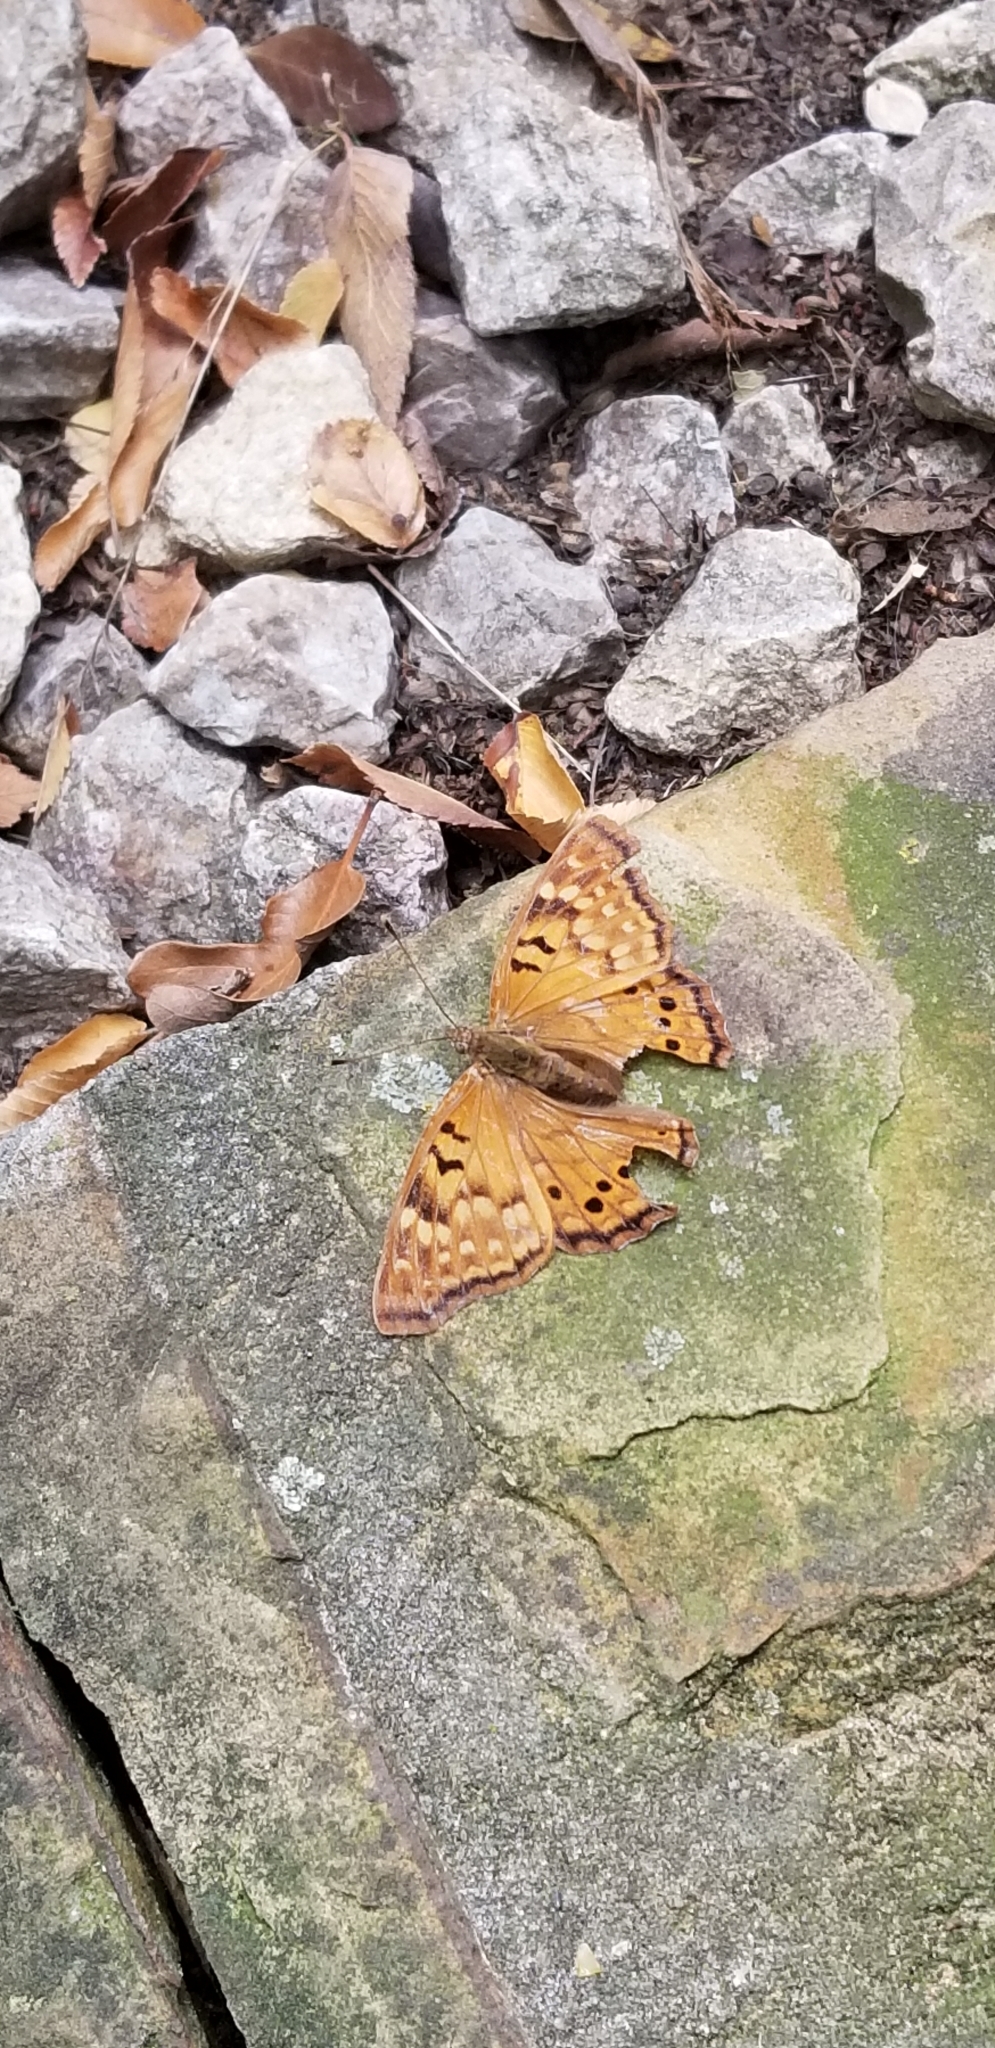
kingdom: Animalia
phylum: Arthropoda
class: Insecta
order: Lepidoptera
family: Nymphalidae
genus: Asterocampa
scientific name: Asterocampa clyton
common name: Tawny emperor
